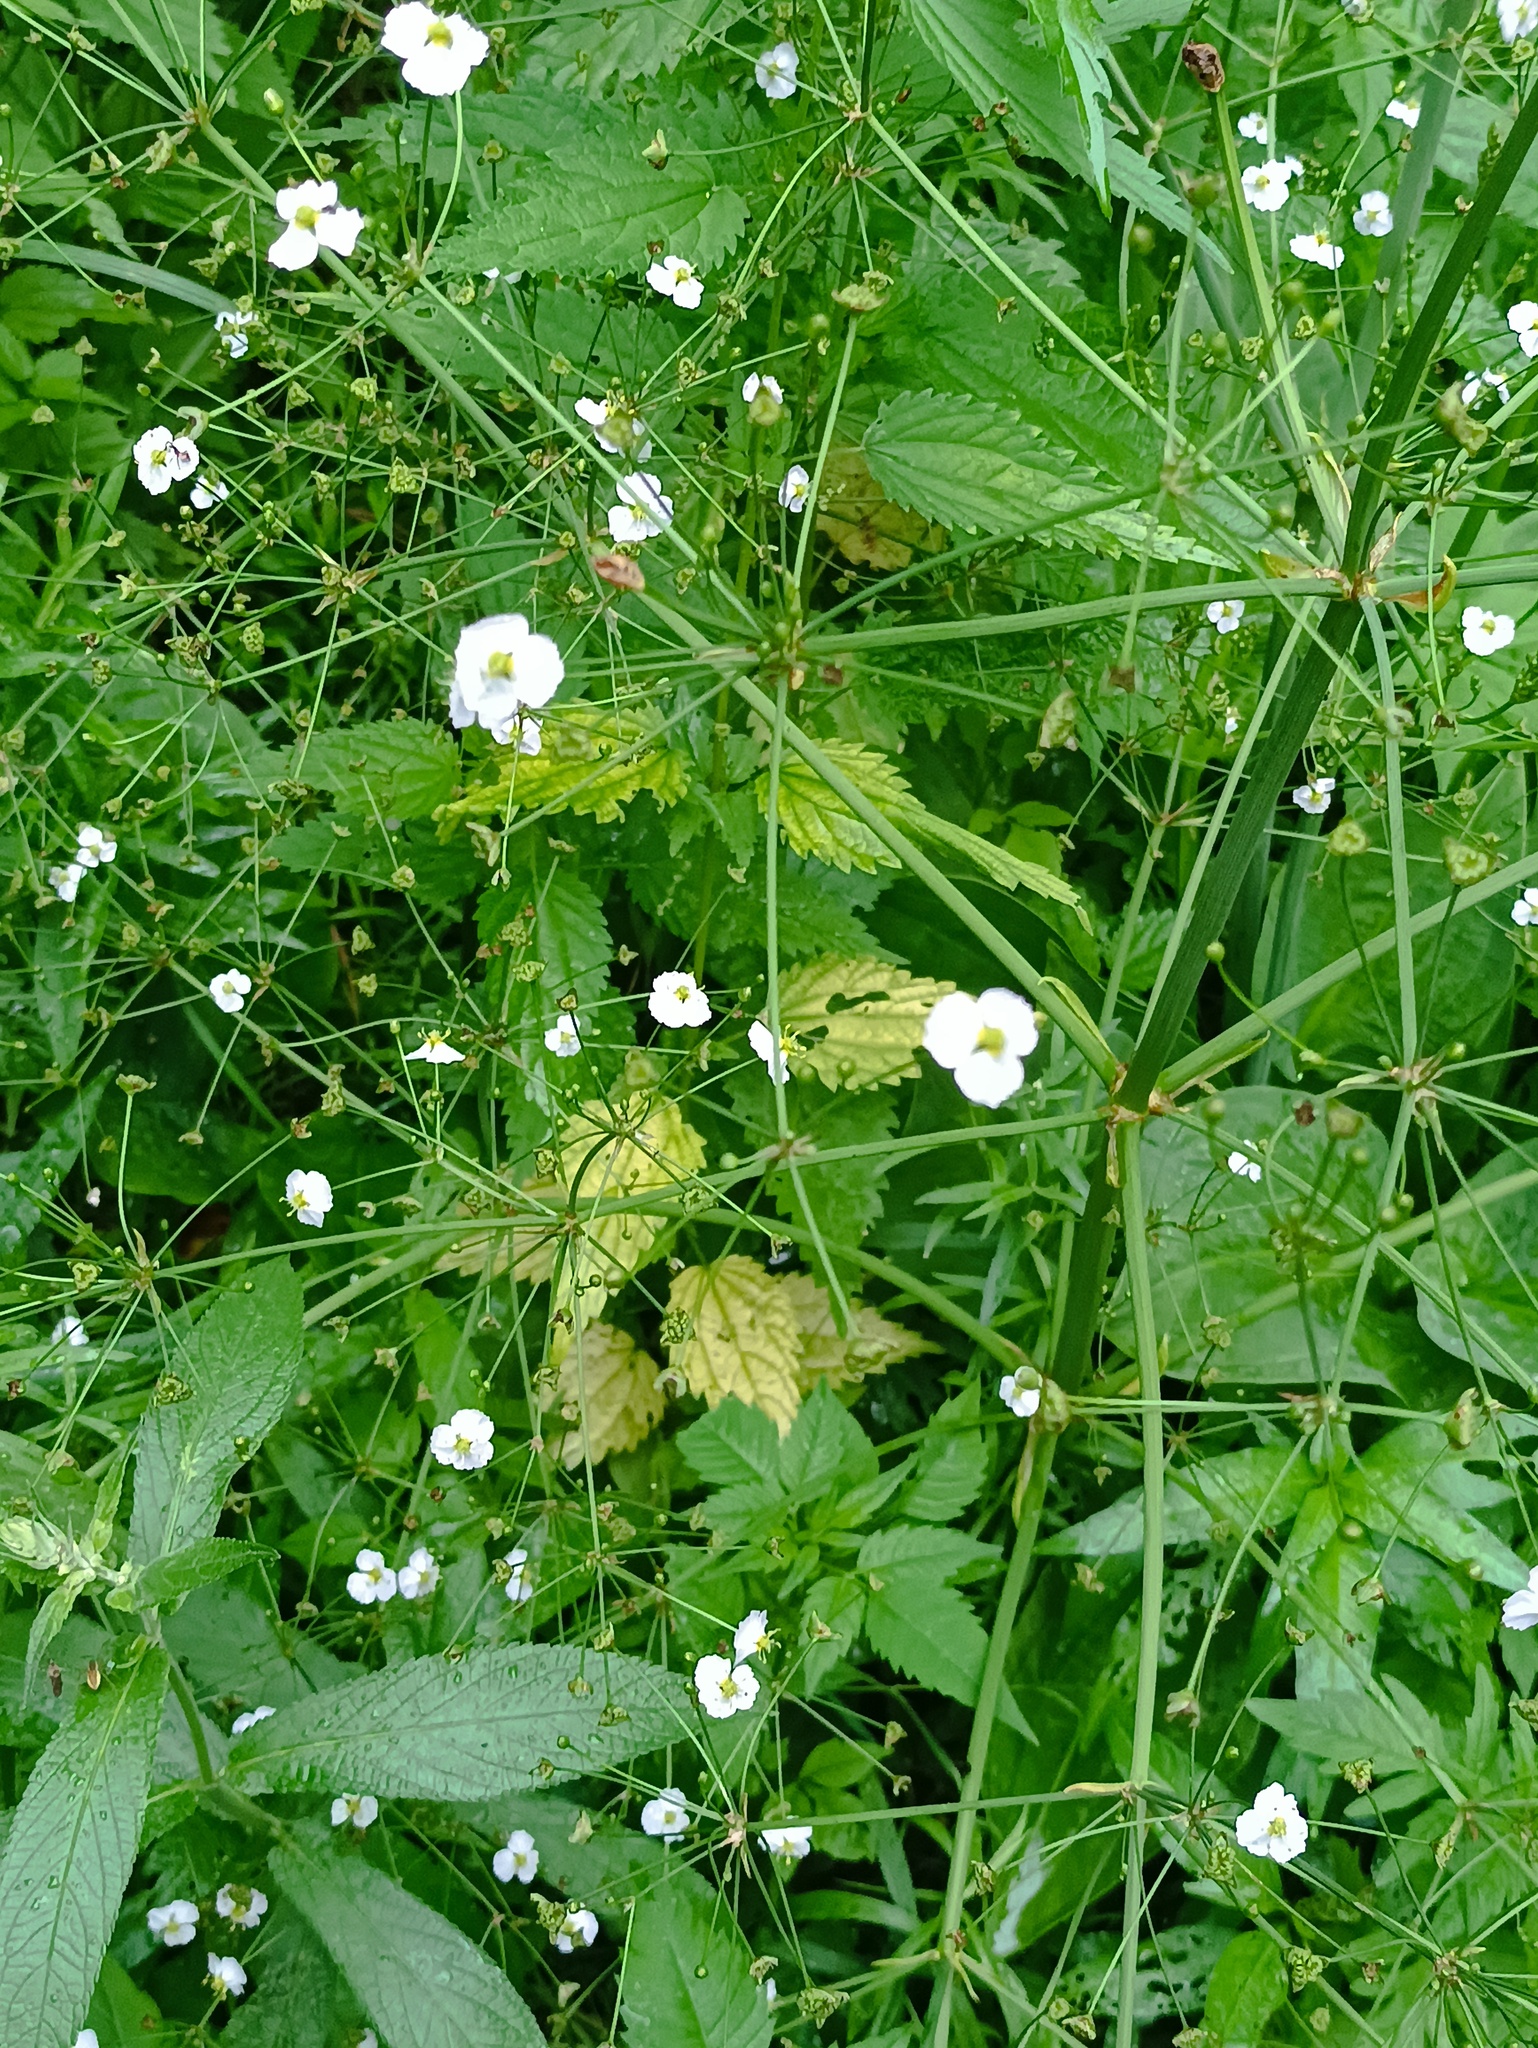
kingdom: Plantae
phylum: Tracheophyta
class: Liliopsida
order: Alismatales
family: Alismataceae
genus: Alisma
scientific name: Alisma plantago-aquatica
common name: Water-plantain
